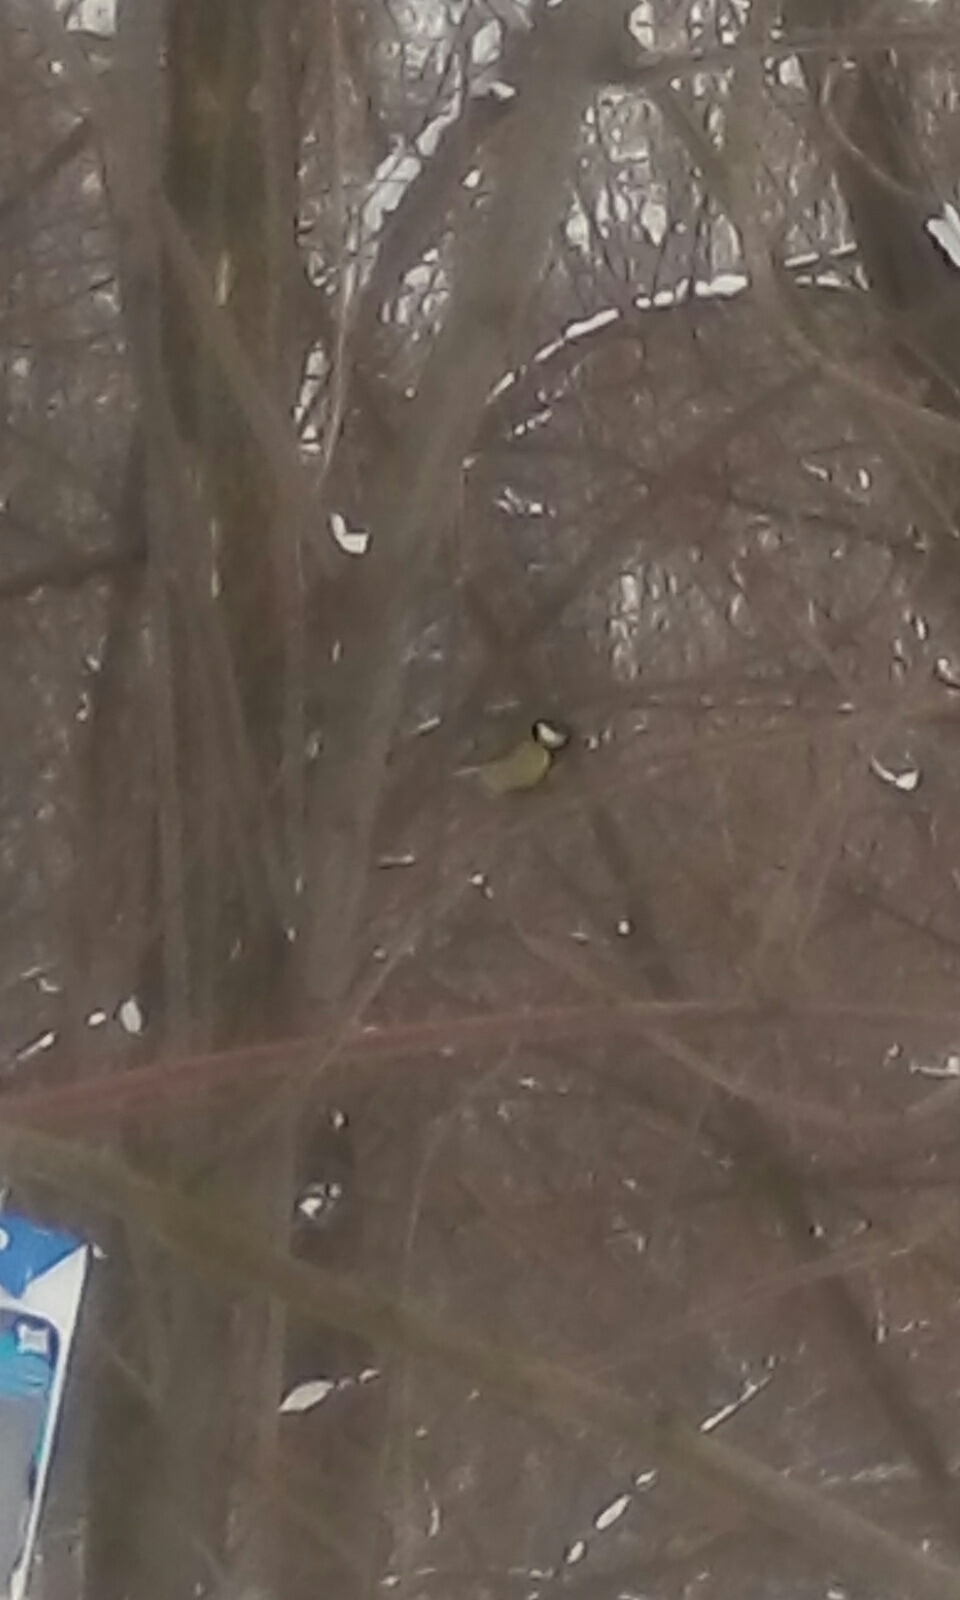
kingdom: Animalia
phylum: Chordata
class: Aves
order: Passeriformes
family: Paridae
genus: Parus
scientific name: Parus major
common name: Great tit
